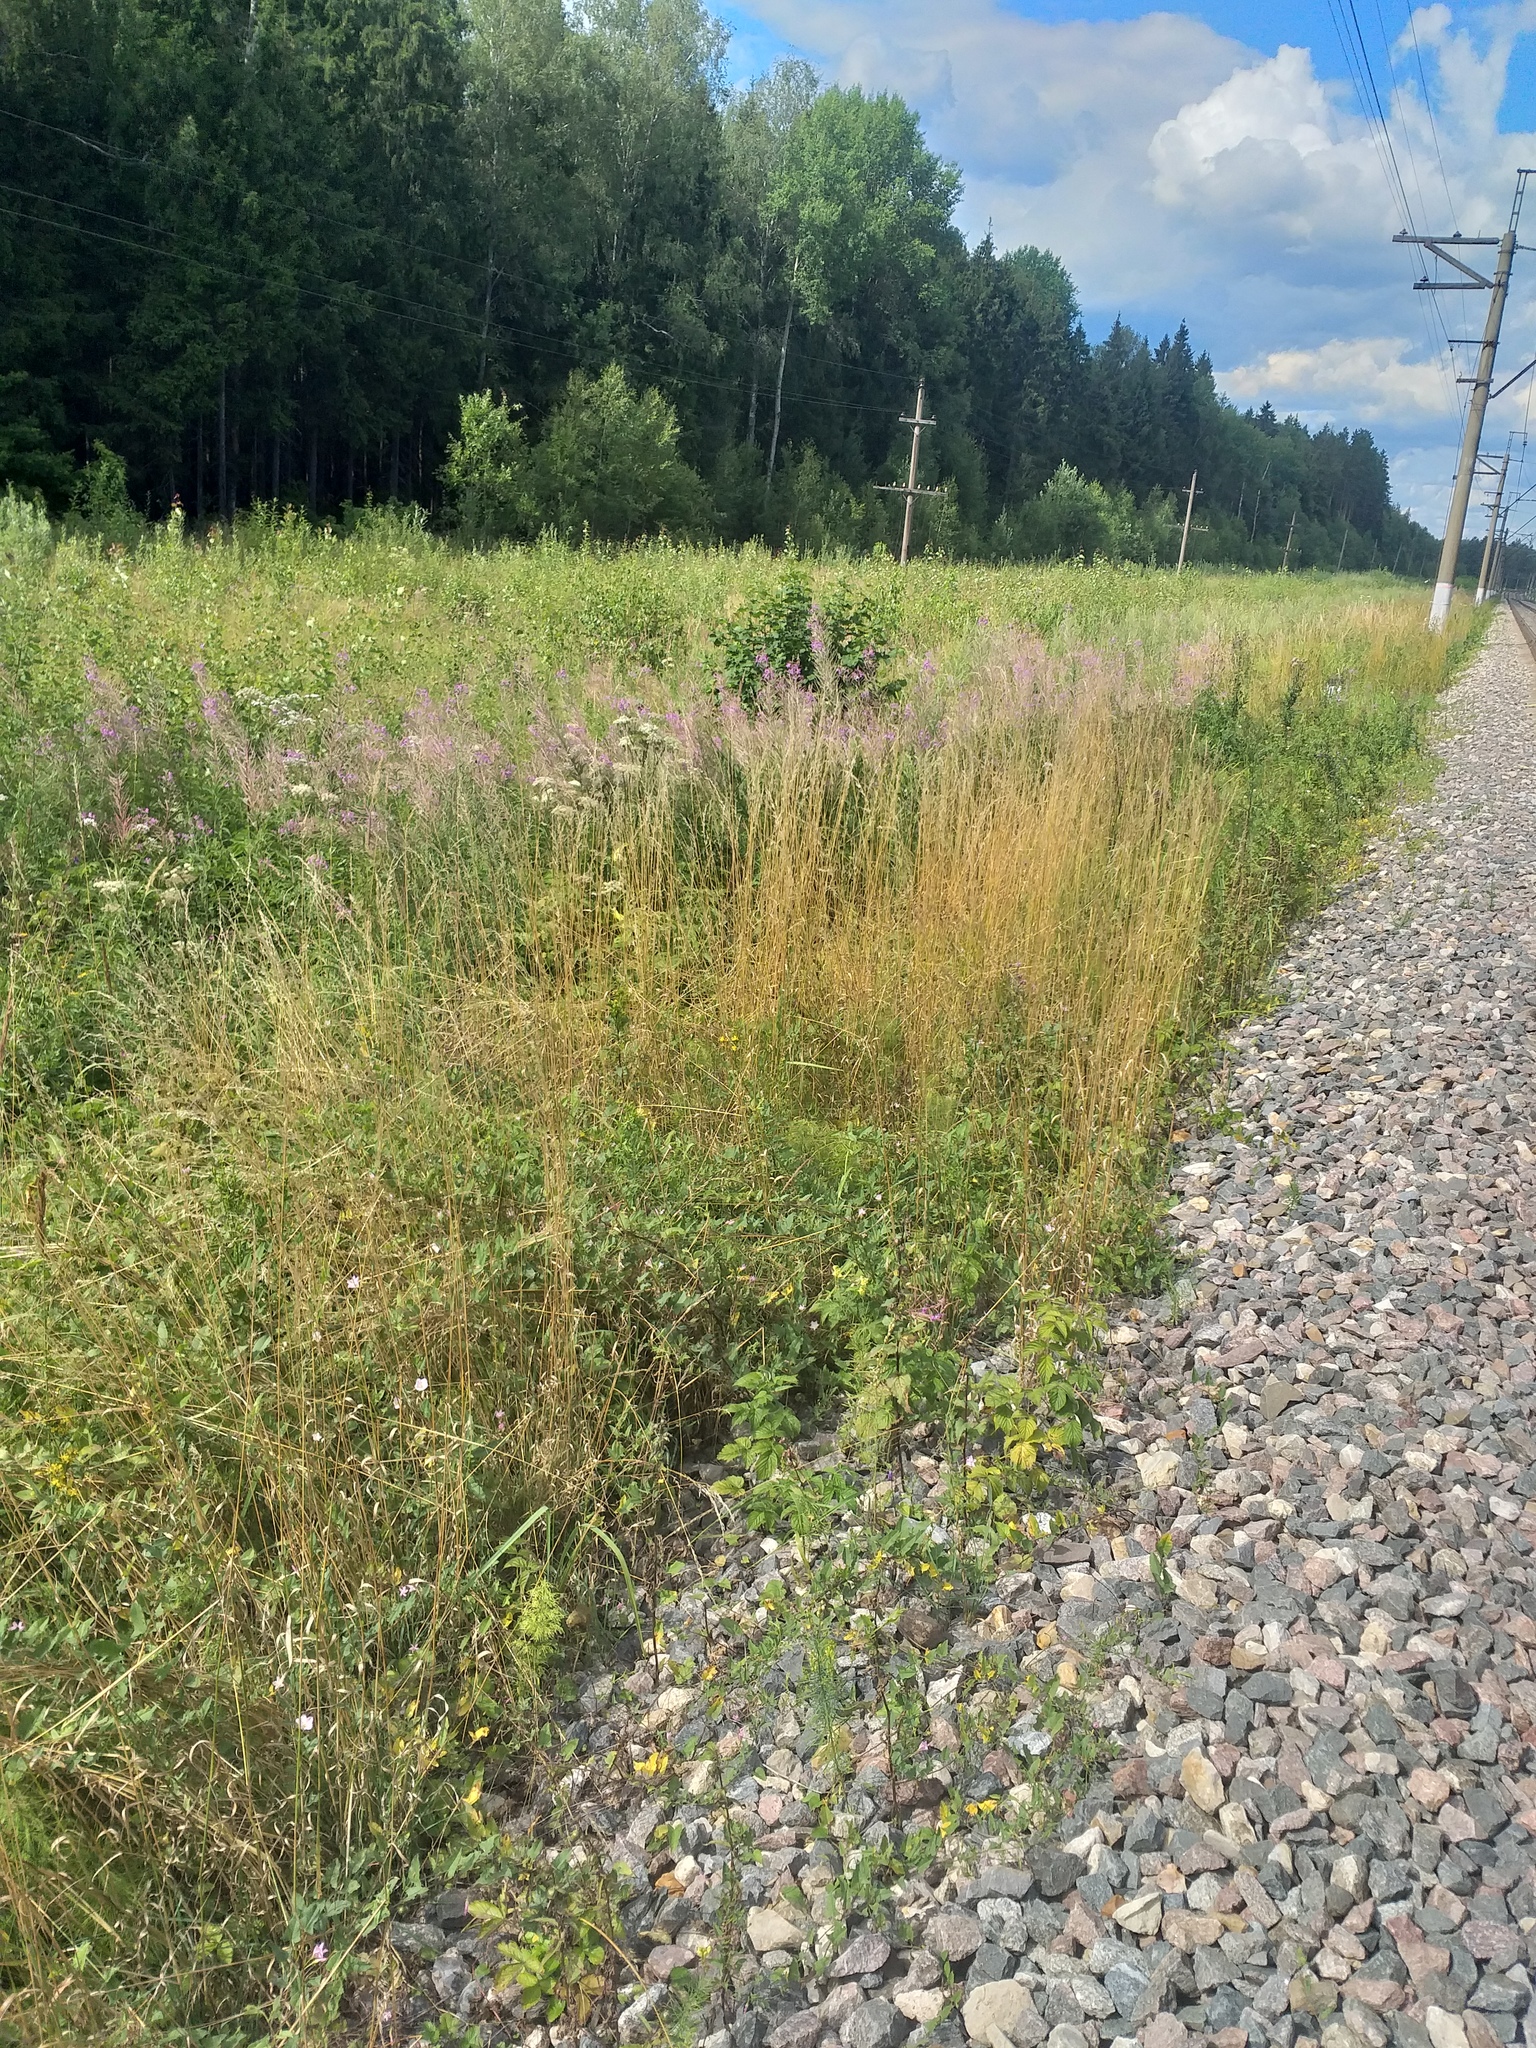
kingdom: Plantae
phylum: Tracheophyta
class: Liliopsida
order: Poales
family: Poaceae
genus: Arrhenatherum
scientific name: Arrhenatherum elatius
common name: Tall oatgrass
